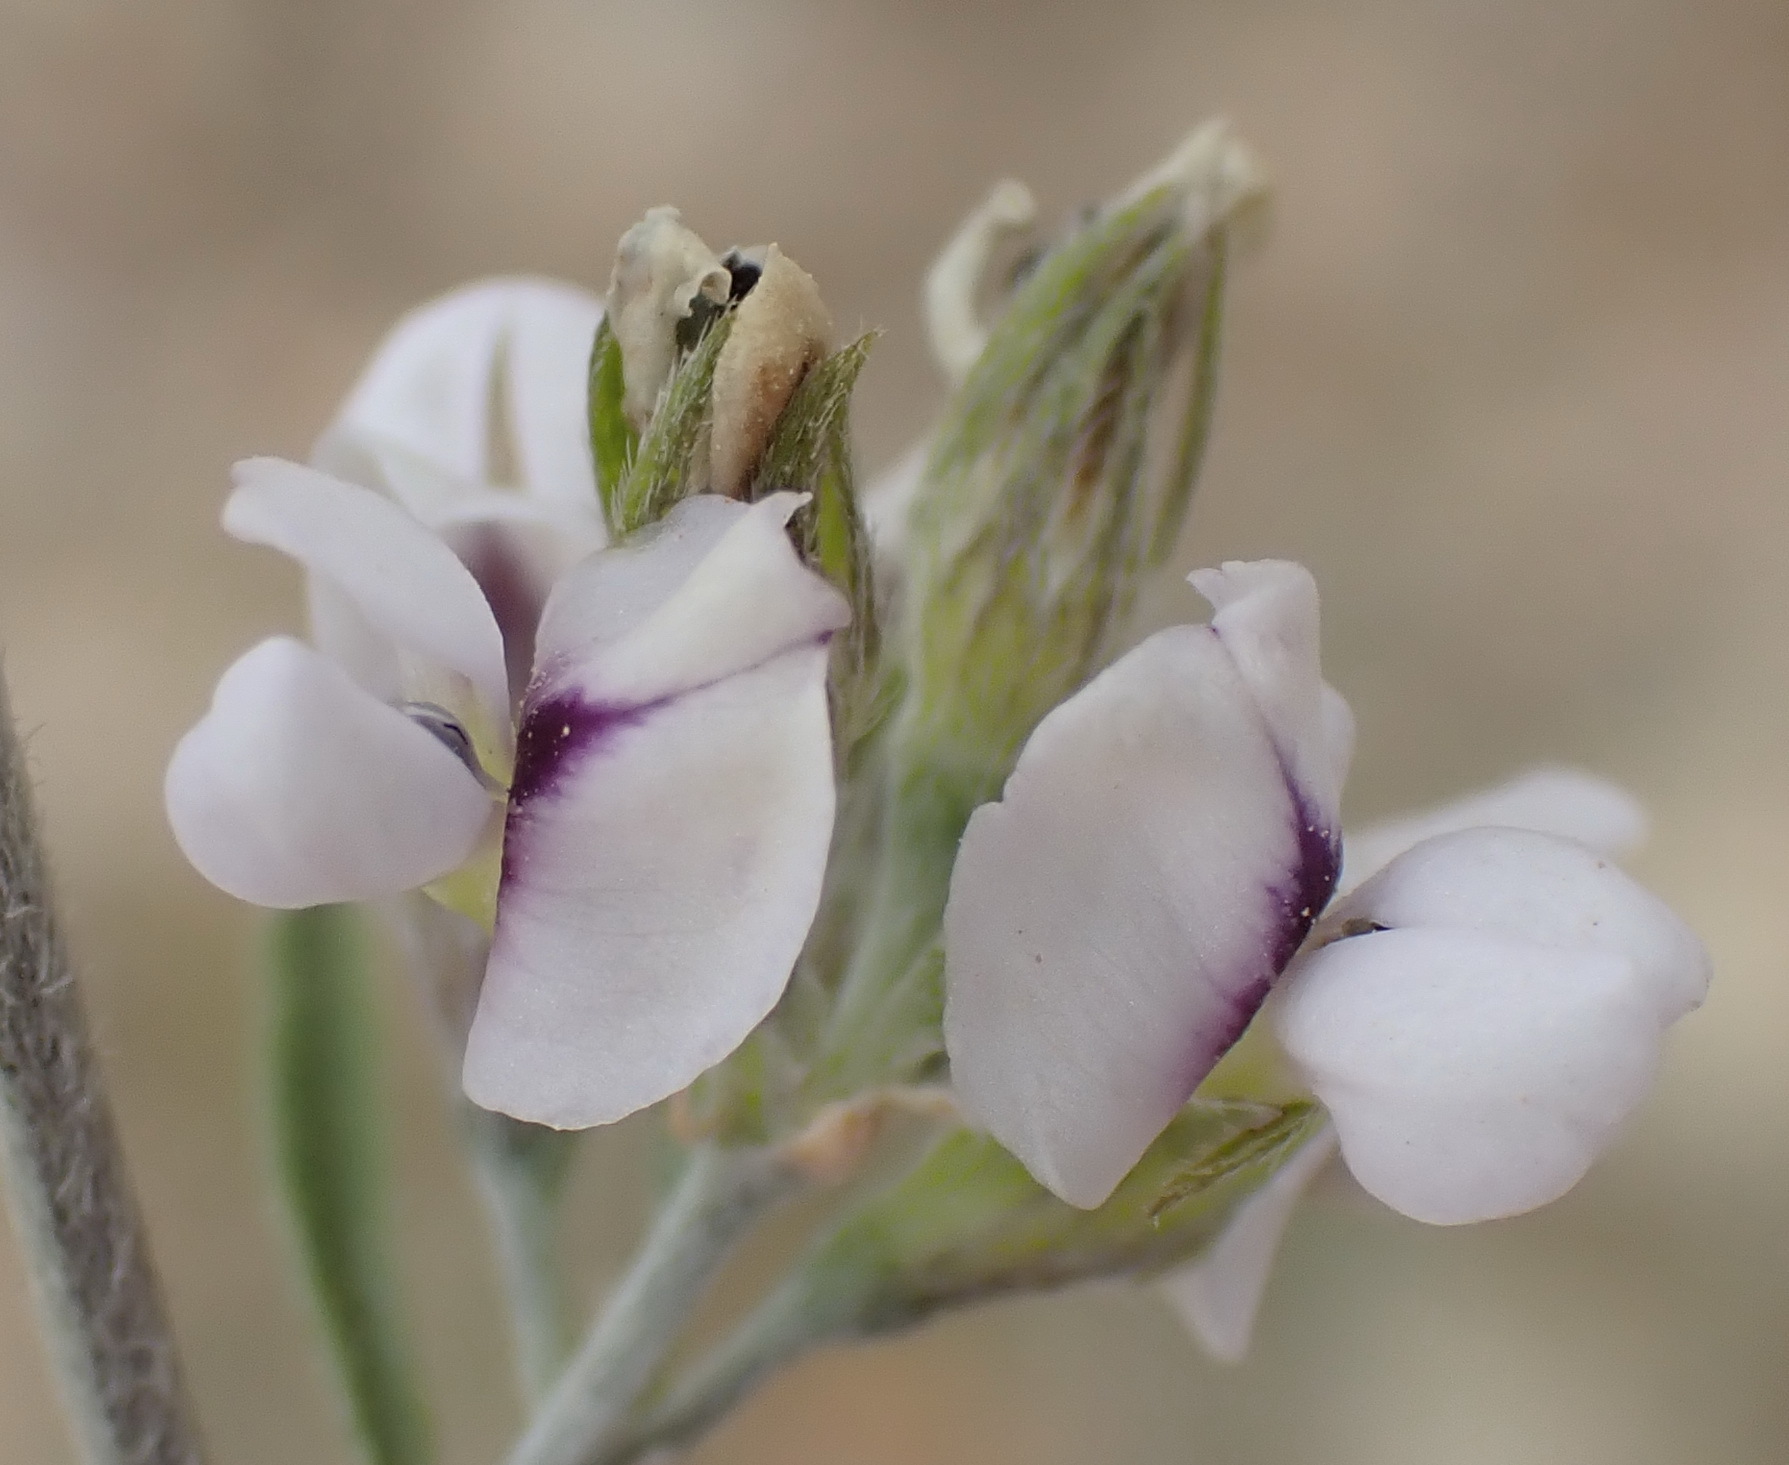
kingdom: Plantae
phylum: Tracheophyta
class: Magnoliopsida
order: Fabales
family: Fabaceae
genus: Psoralea
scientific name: Psoralea candicans
